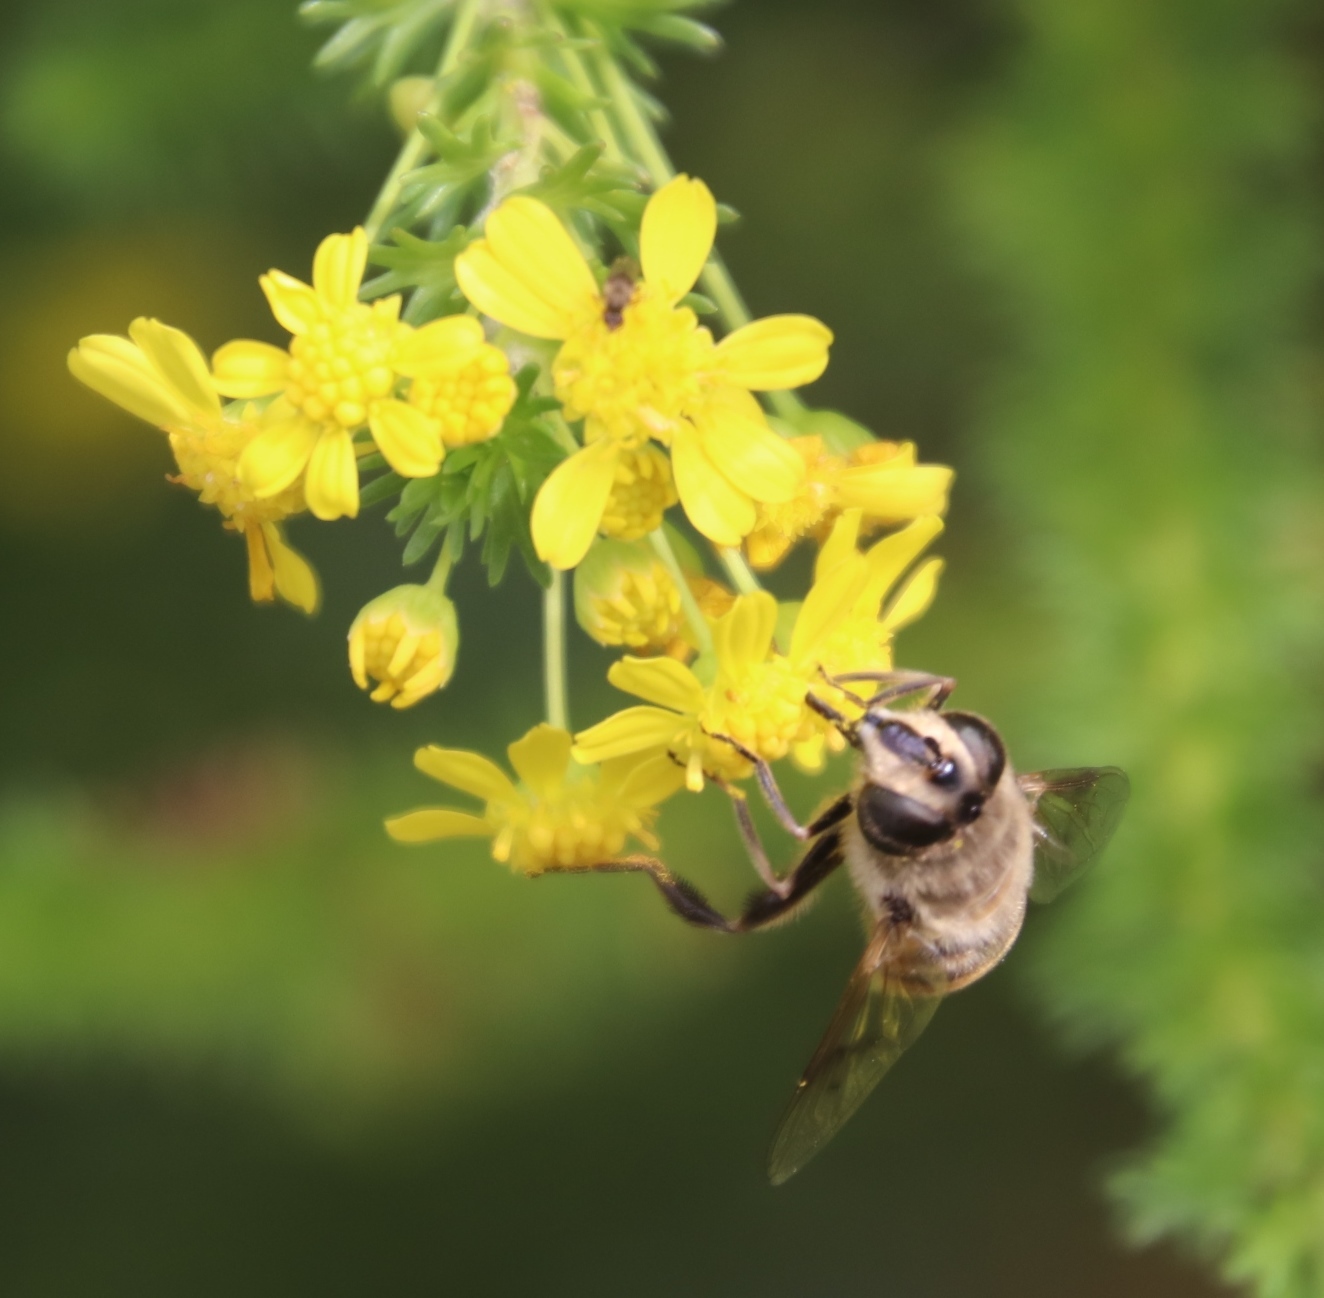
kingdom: Plantae
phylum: Tracheophyta
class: Magnoliopsida
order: Asterales
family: Asteraceae
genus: Euryops
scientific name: Euryops virgineus
